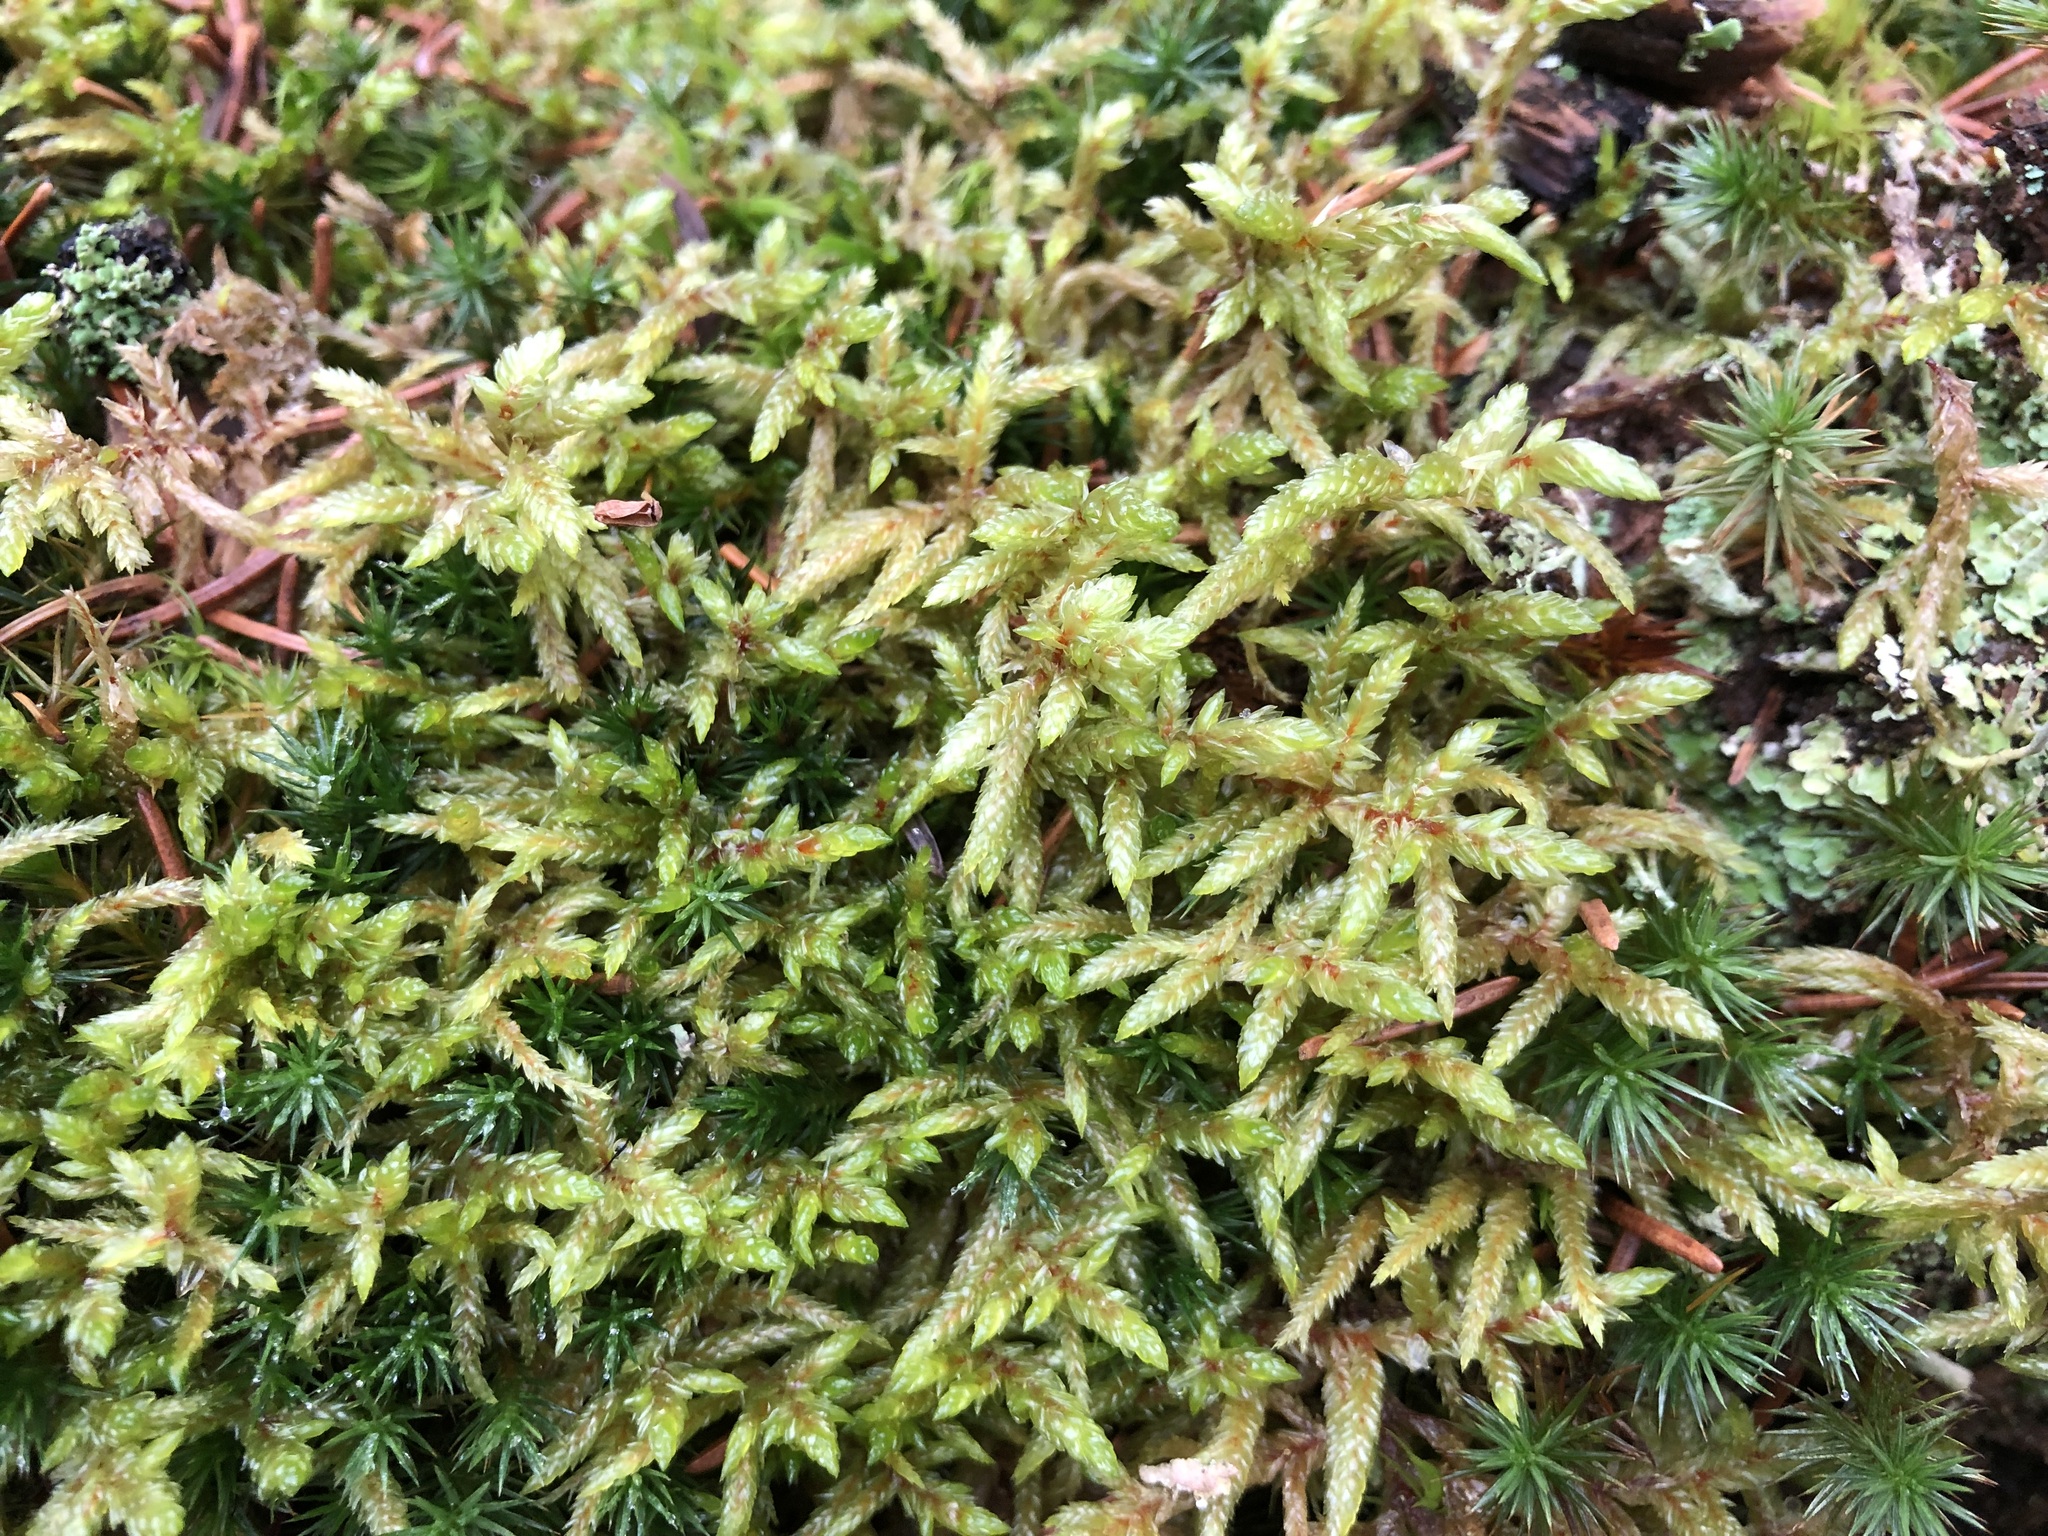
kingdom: Plantae
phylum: Bryophyta
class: Bryopsida
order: Hypnales
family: Hylocomiaceae
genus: Pleurozium
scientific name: Pleurozium schreberi
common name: Red-stemmed feather moss
